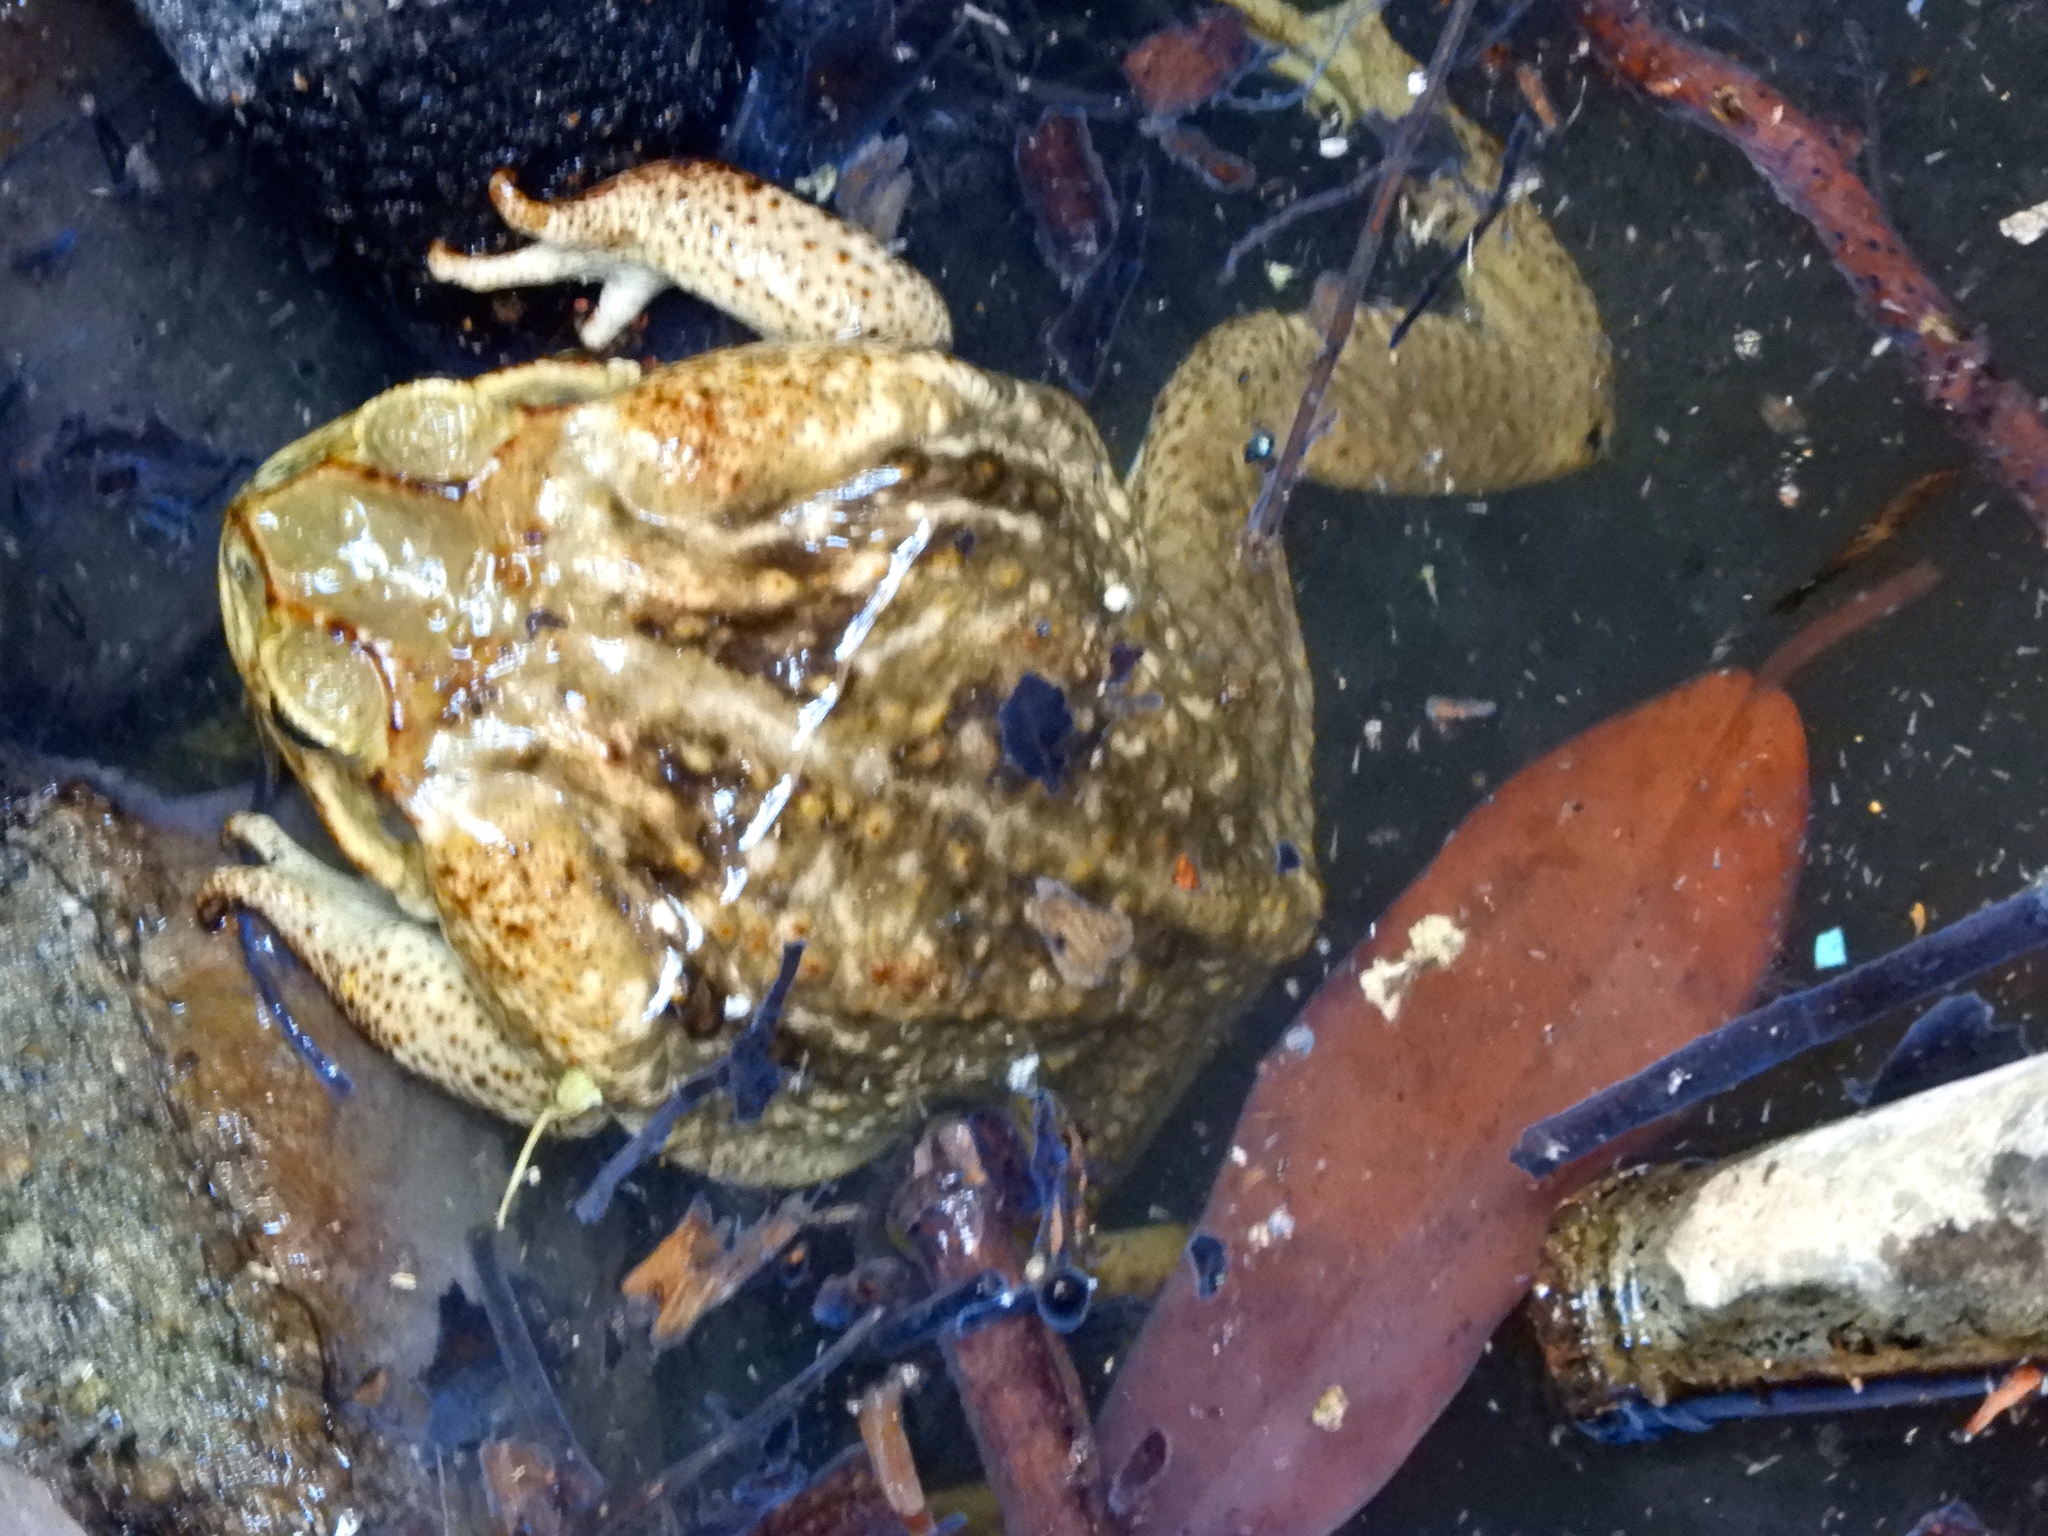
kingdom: Animalia
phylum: Chordata
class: Amphibia
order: Anura
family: Bufonidae
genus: Rhinella
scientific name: Rhinella horribilis
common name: Mesoamerican cane toad
